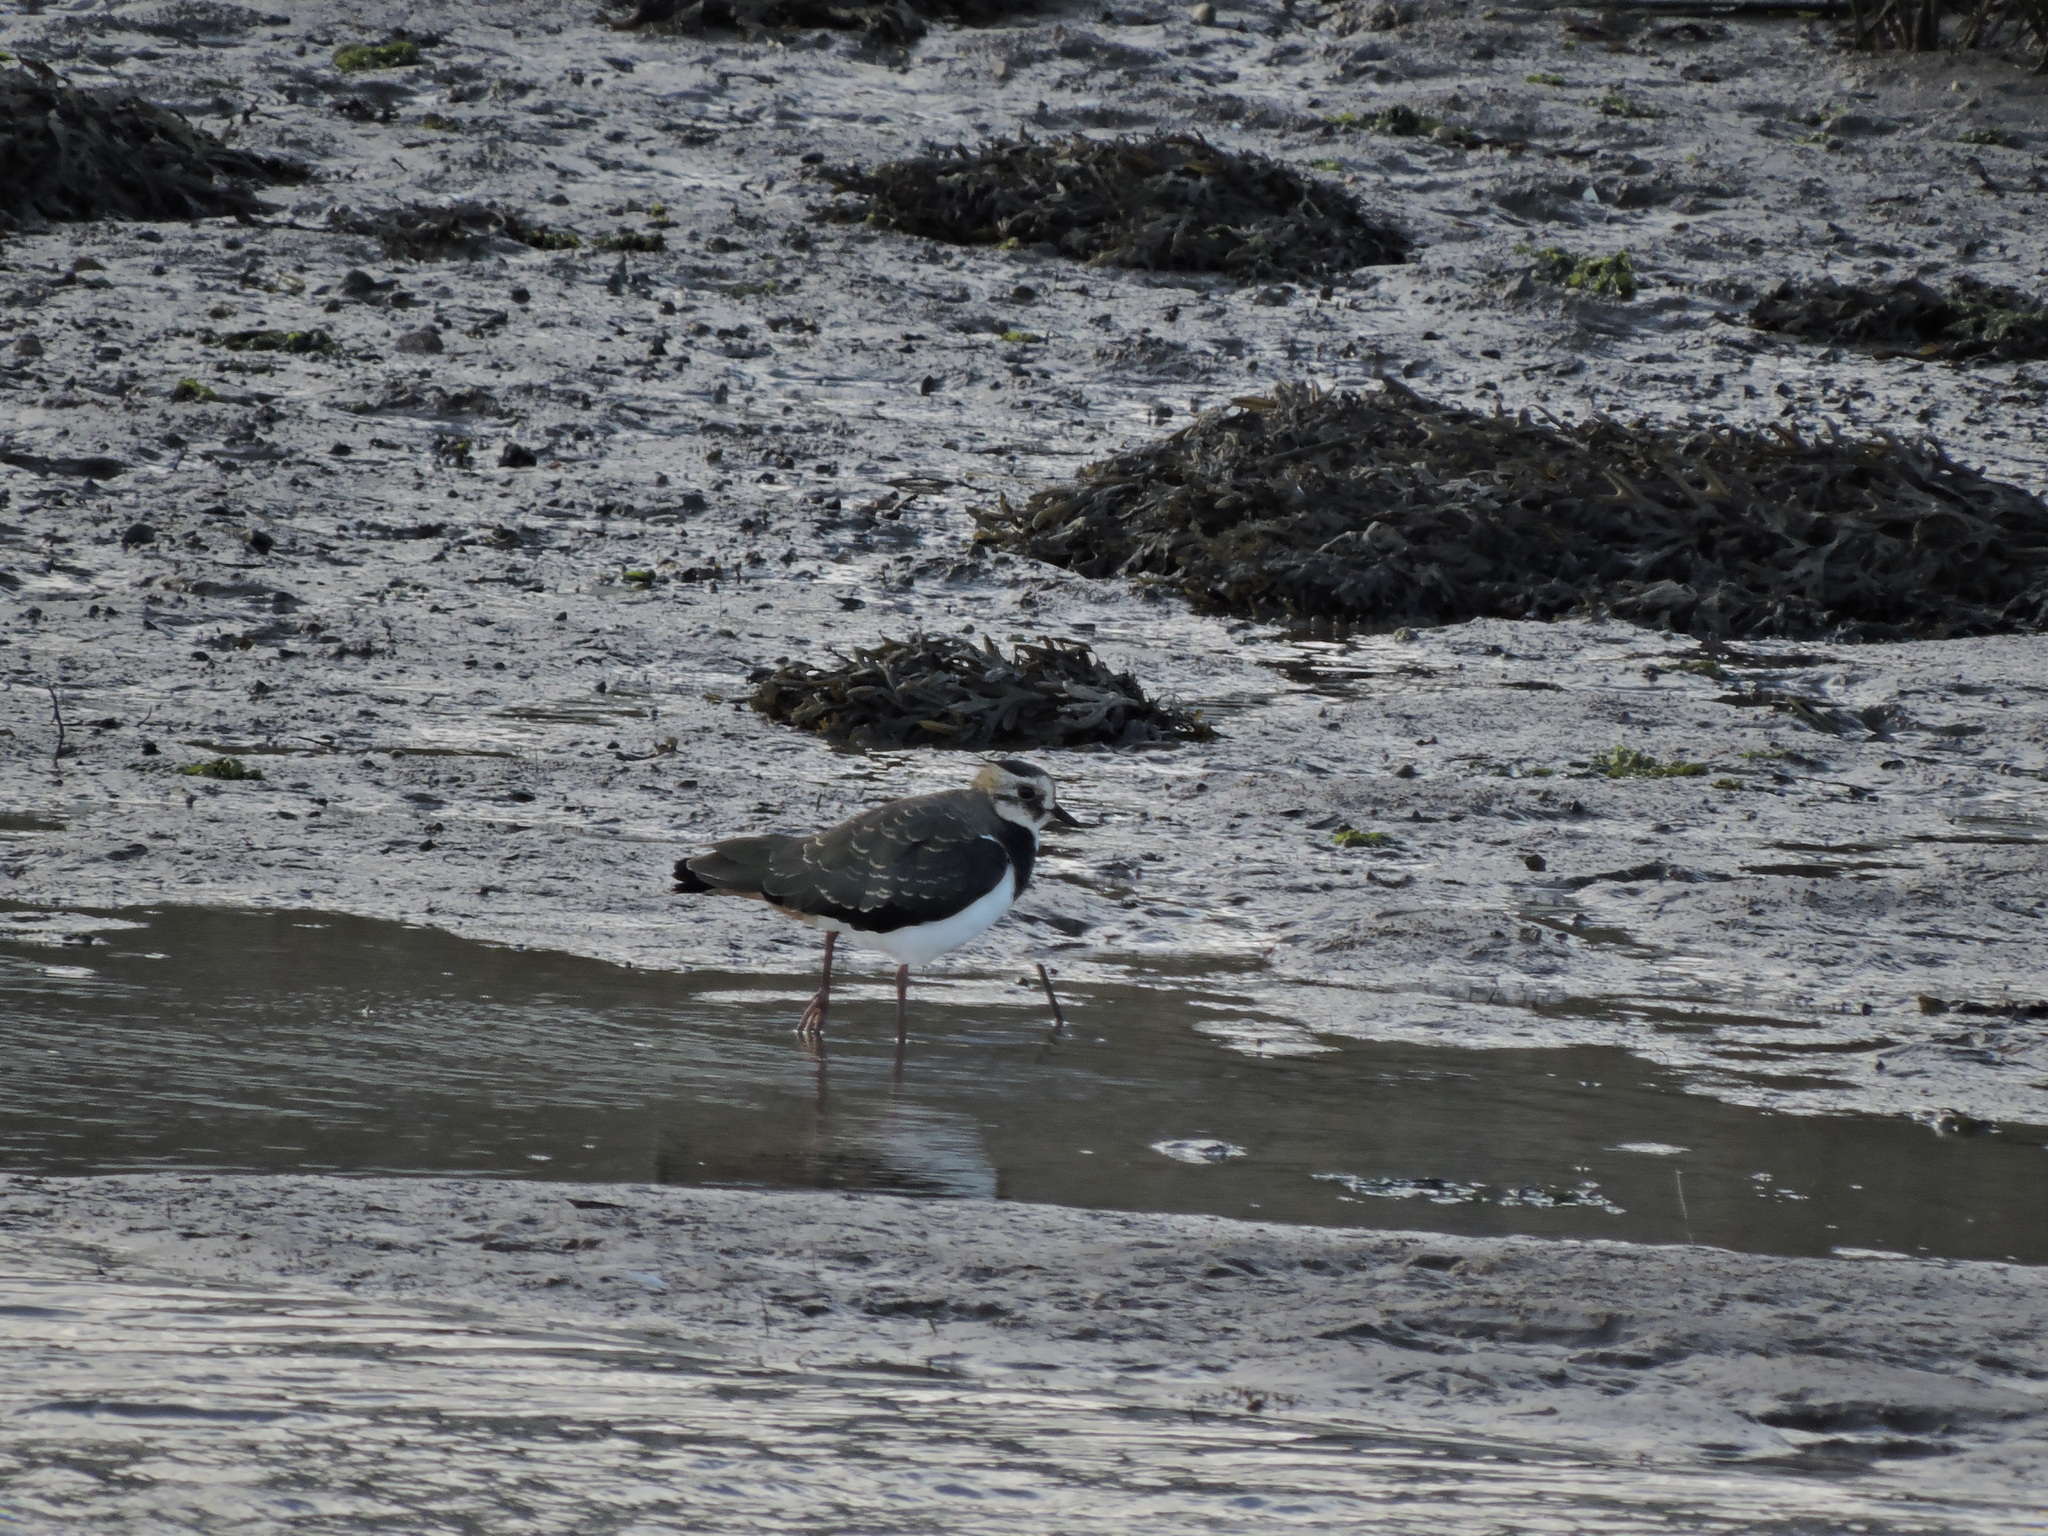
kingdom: Animalia
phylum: Chordata
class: Aves
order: Charadriiformes
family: Charadriidae
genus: Vanellus
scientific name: Vanellus vanellus
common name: Northern lapwing
